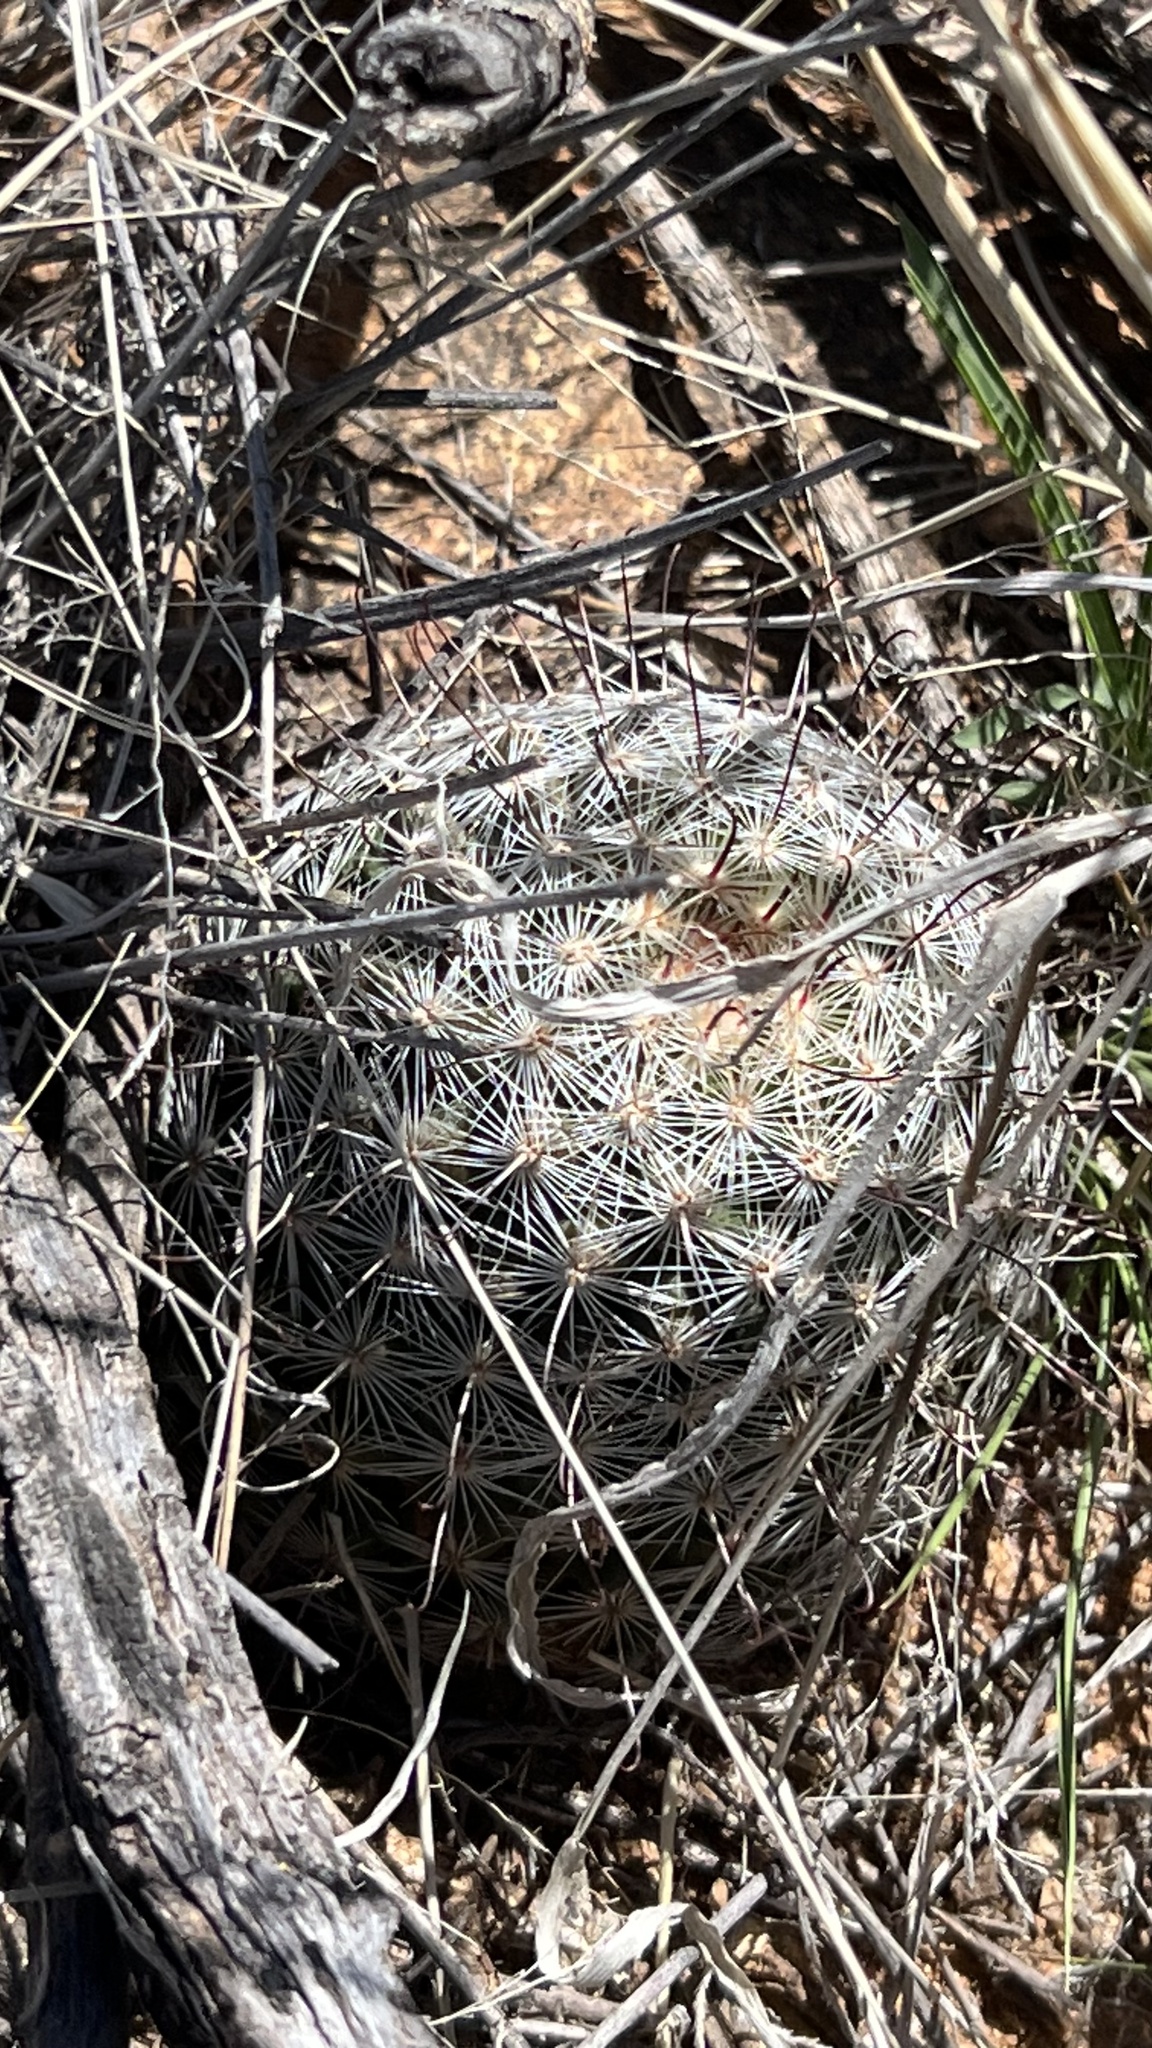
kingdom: Plantae
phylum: Tracheophyta
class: Magnoliopsida
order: Caryophyllales
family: Cactaceae
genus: Cochemiea
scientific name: Cochemiea grahamii
